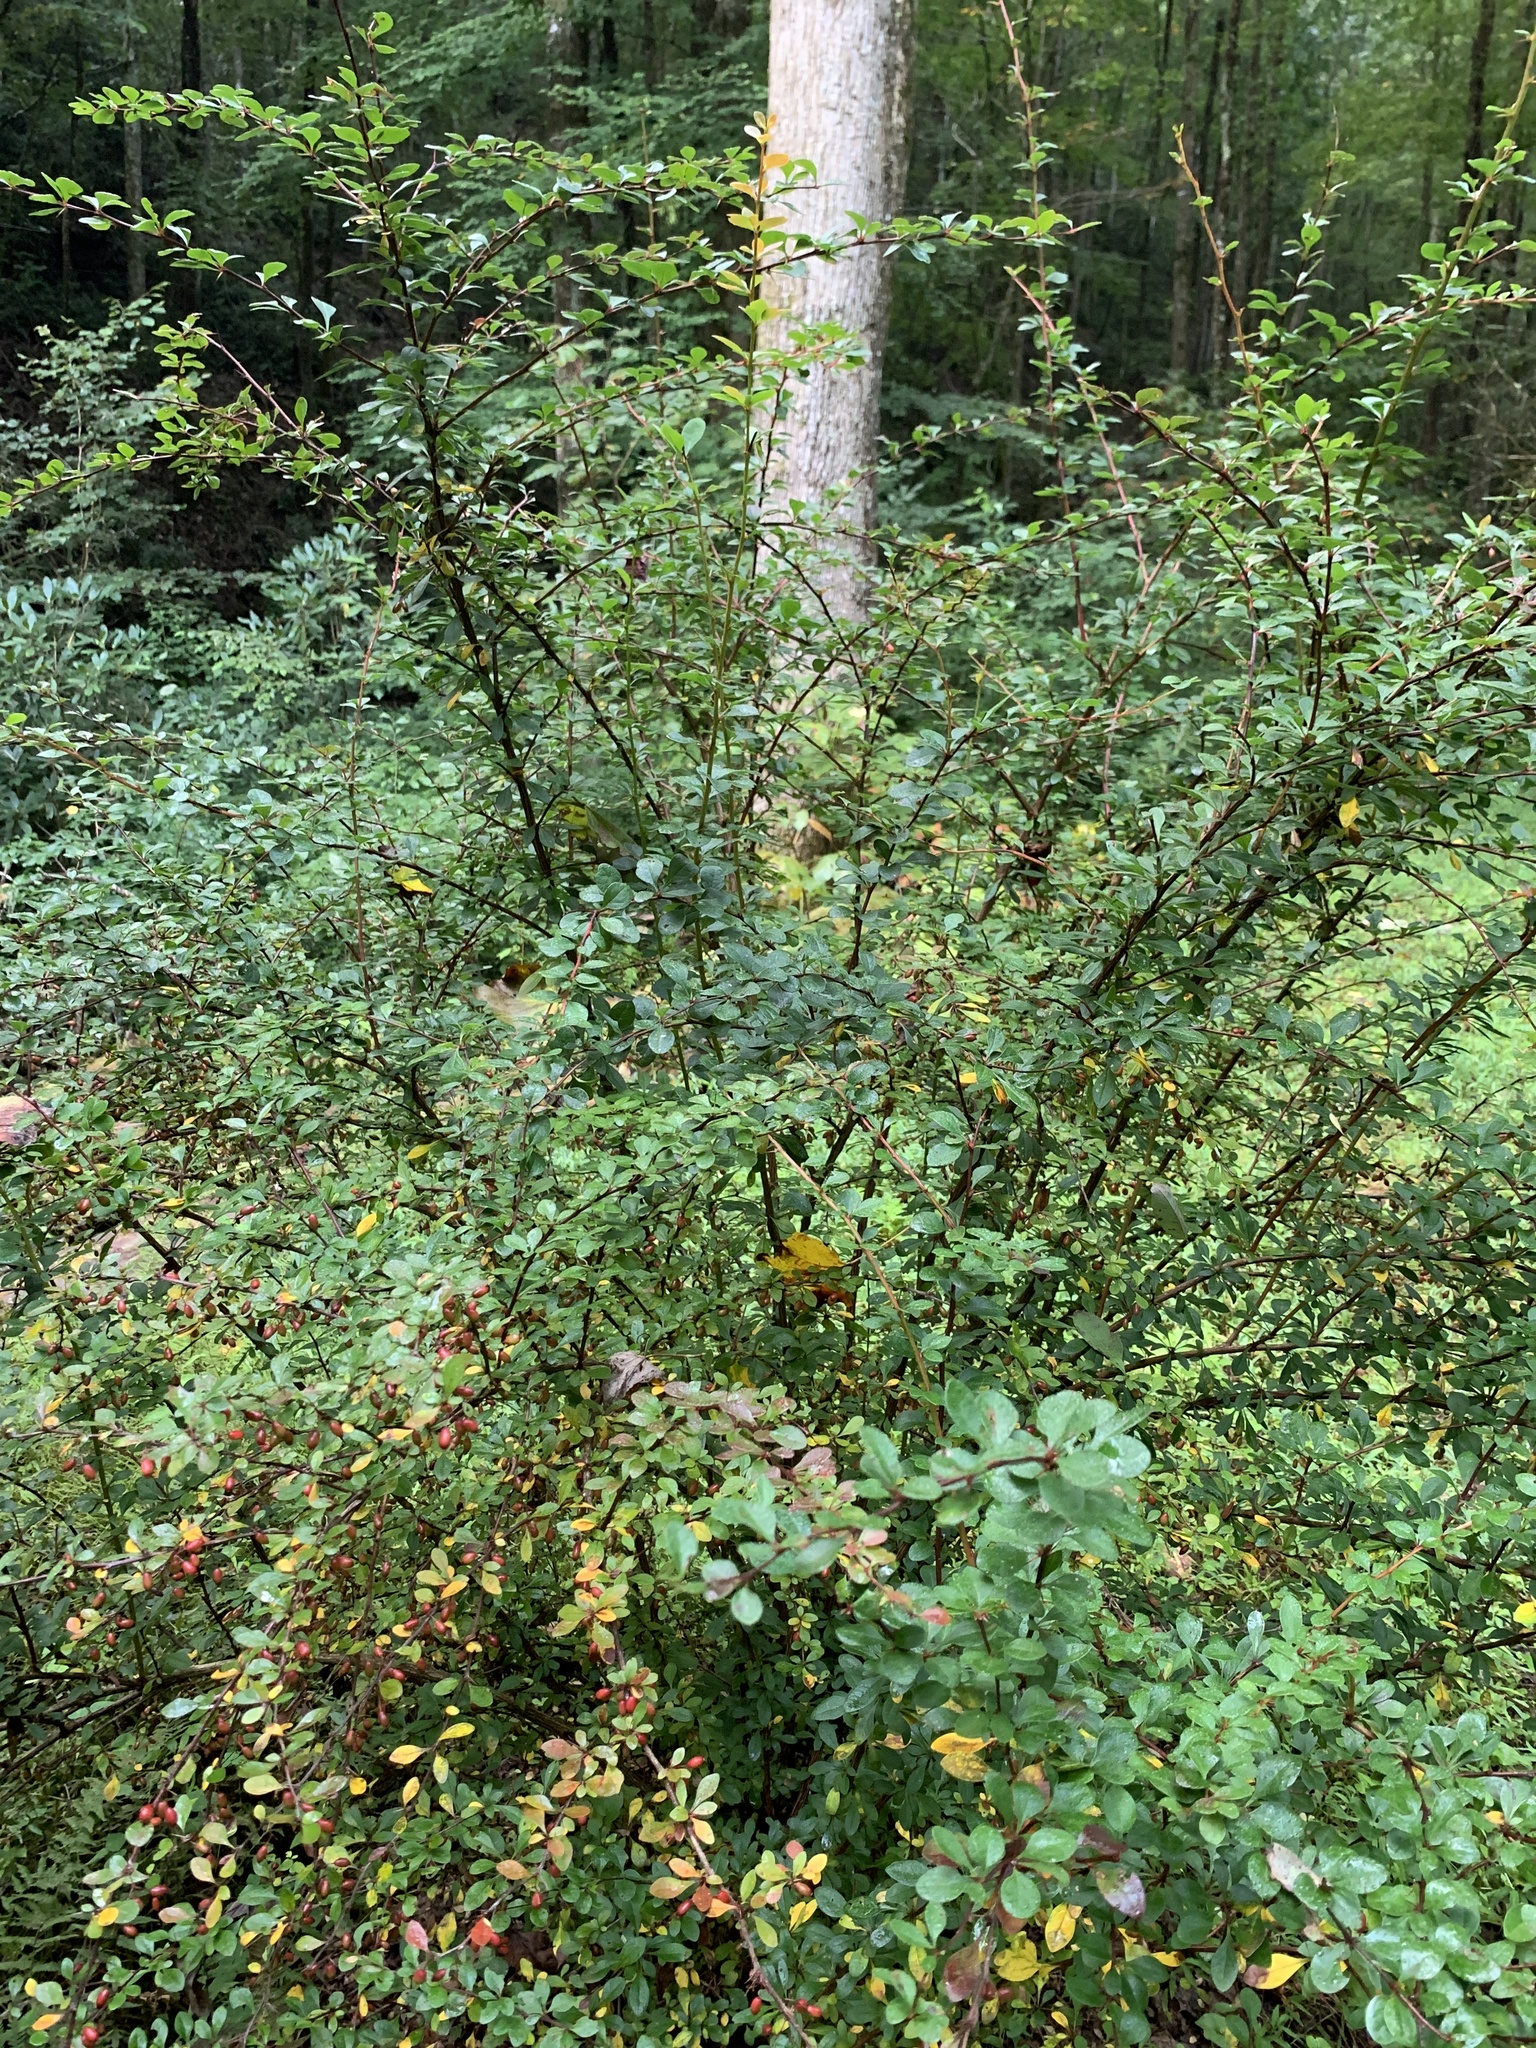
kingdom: Plantae
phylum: Tracheophyta
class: Magnoliopsida
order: Ranunculales
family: Berberidaceae
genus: Berberis
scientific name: Berberis thunbergii
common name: Japanese barberry
